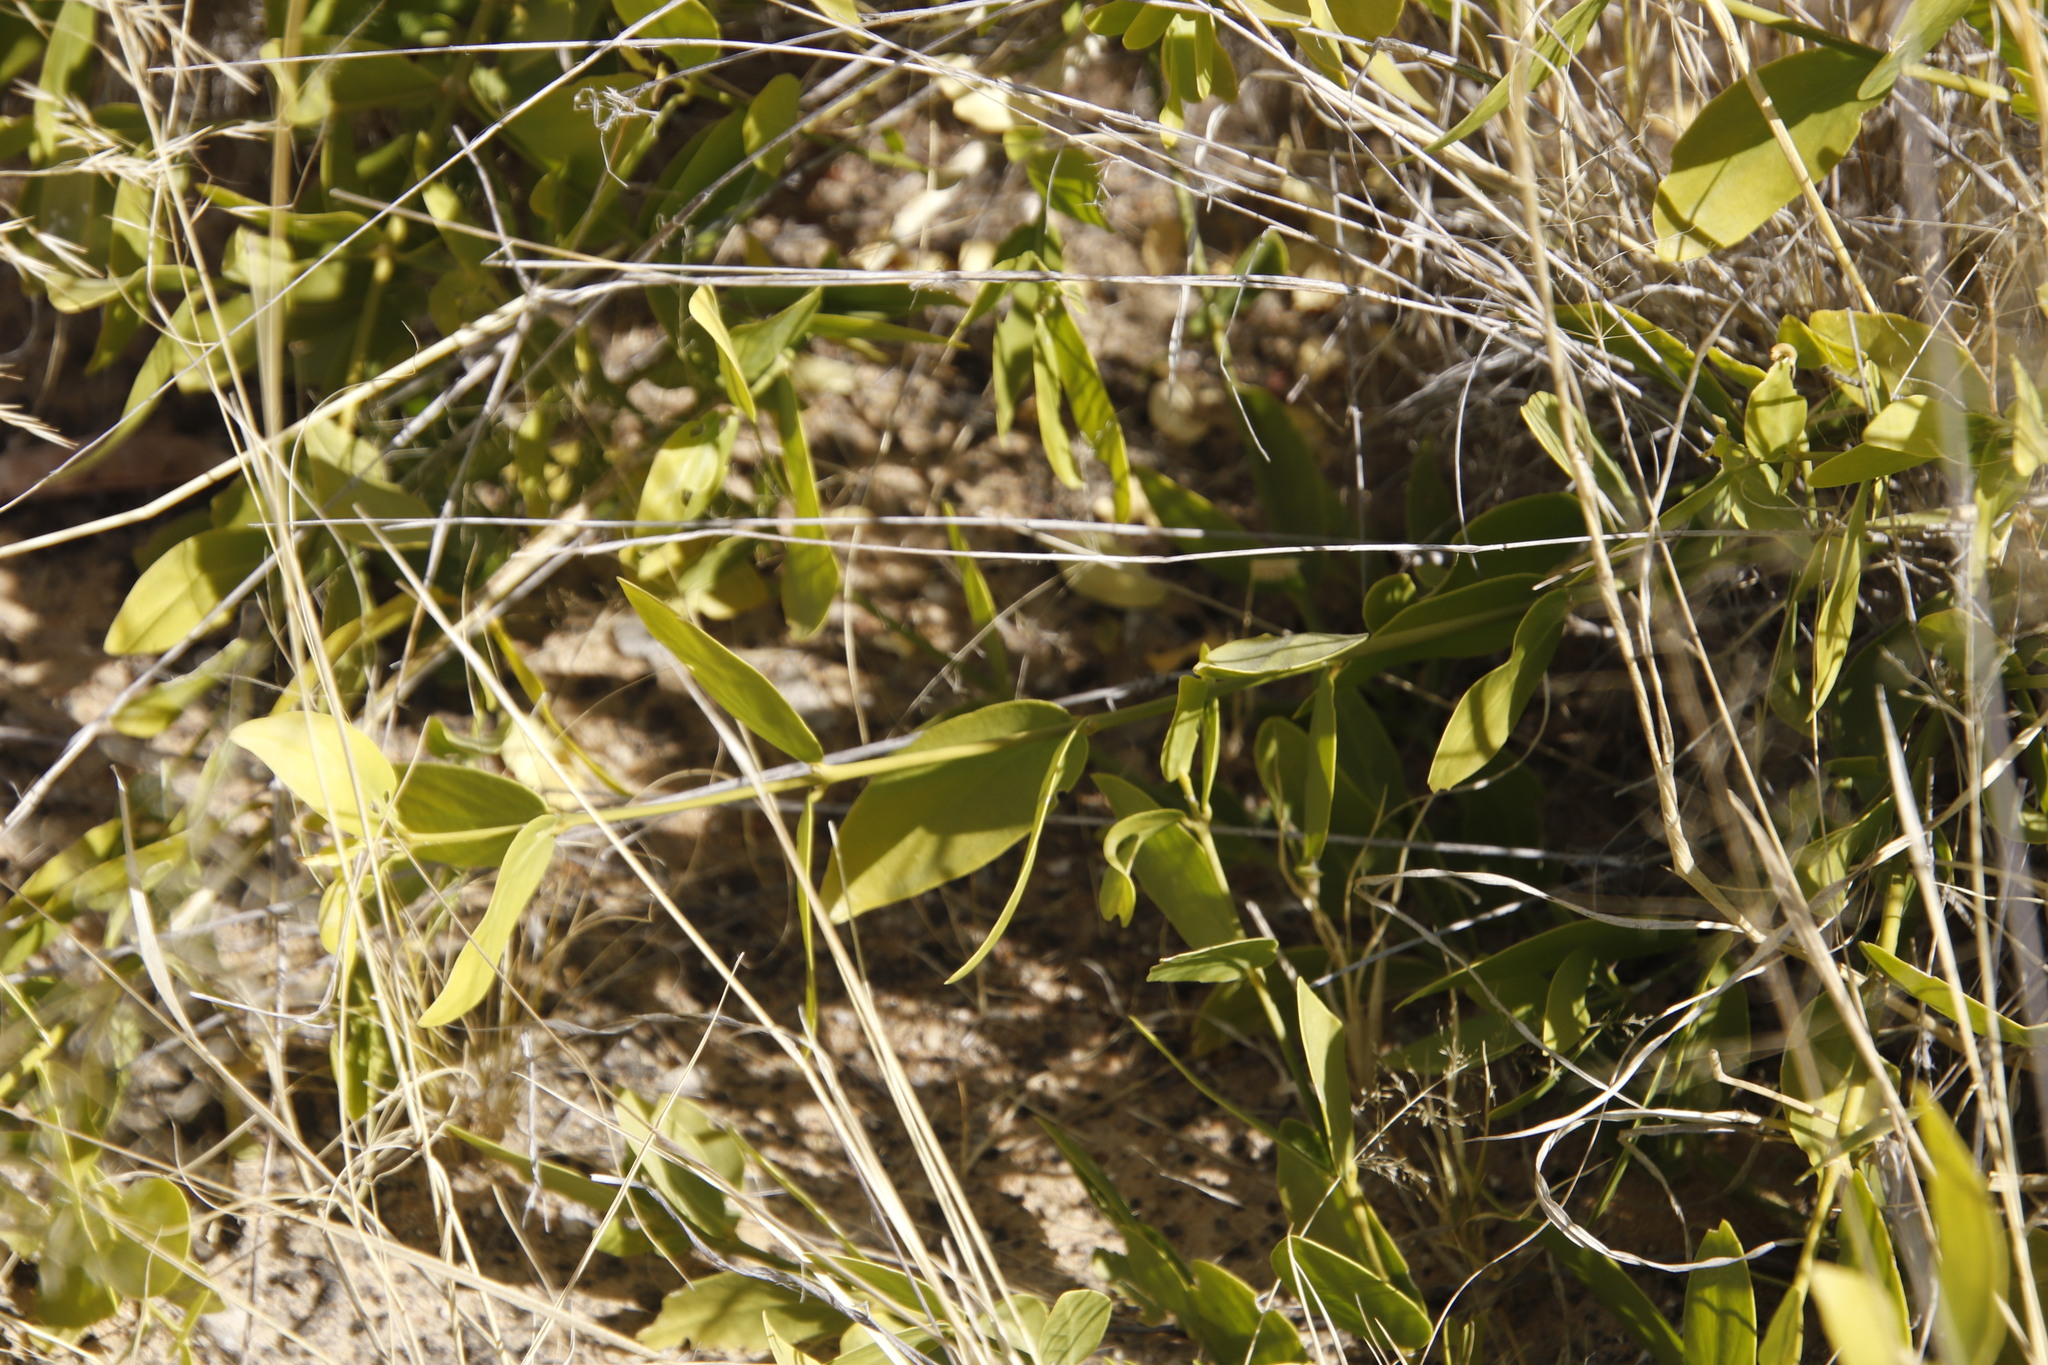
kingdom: Plantae
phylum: Tracheophyta
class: Magnoliopsida
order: Brassicales
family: Salvadoraceae
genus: Salvadora
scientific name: Salvadora persica
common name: Toothbrushtree
